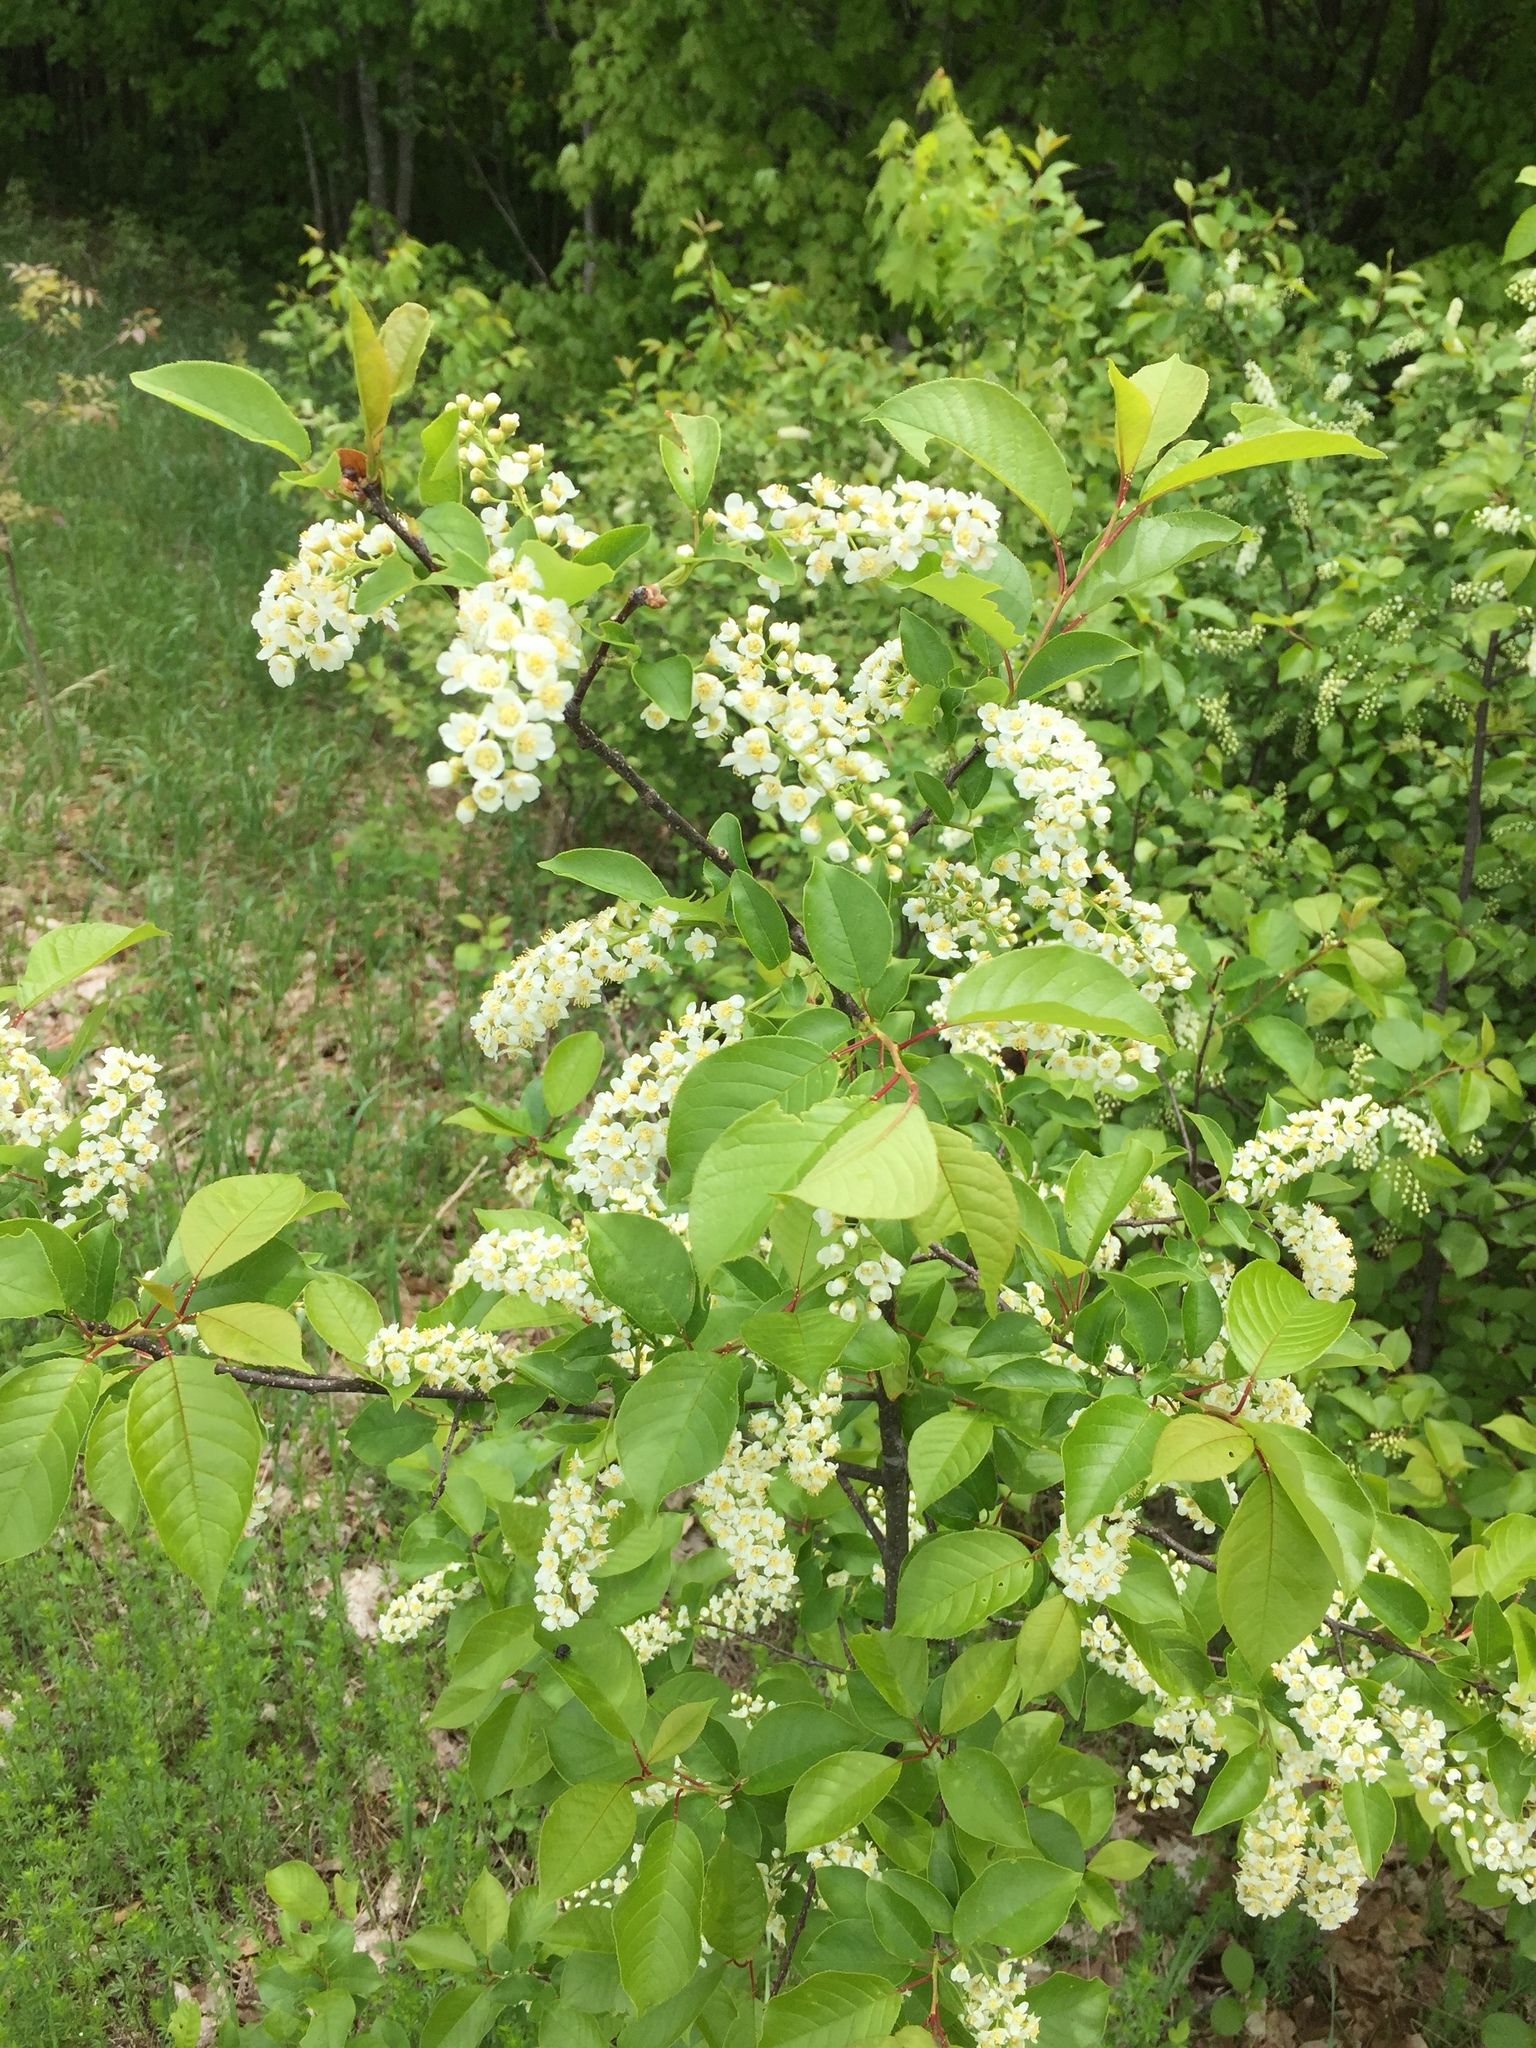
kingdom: Plantae
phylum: Tracheophyta
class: Magnoliopsida
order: Rosales
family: Rosaceae
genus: Prunus
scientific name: Prunus virginiana
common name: Chokecherry
